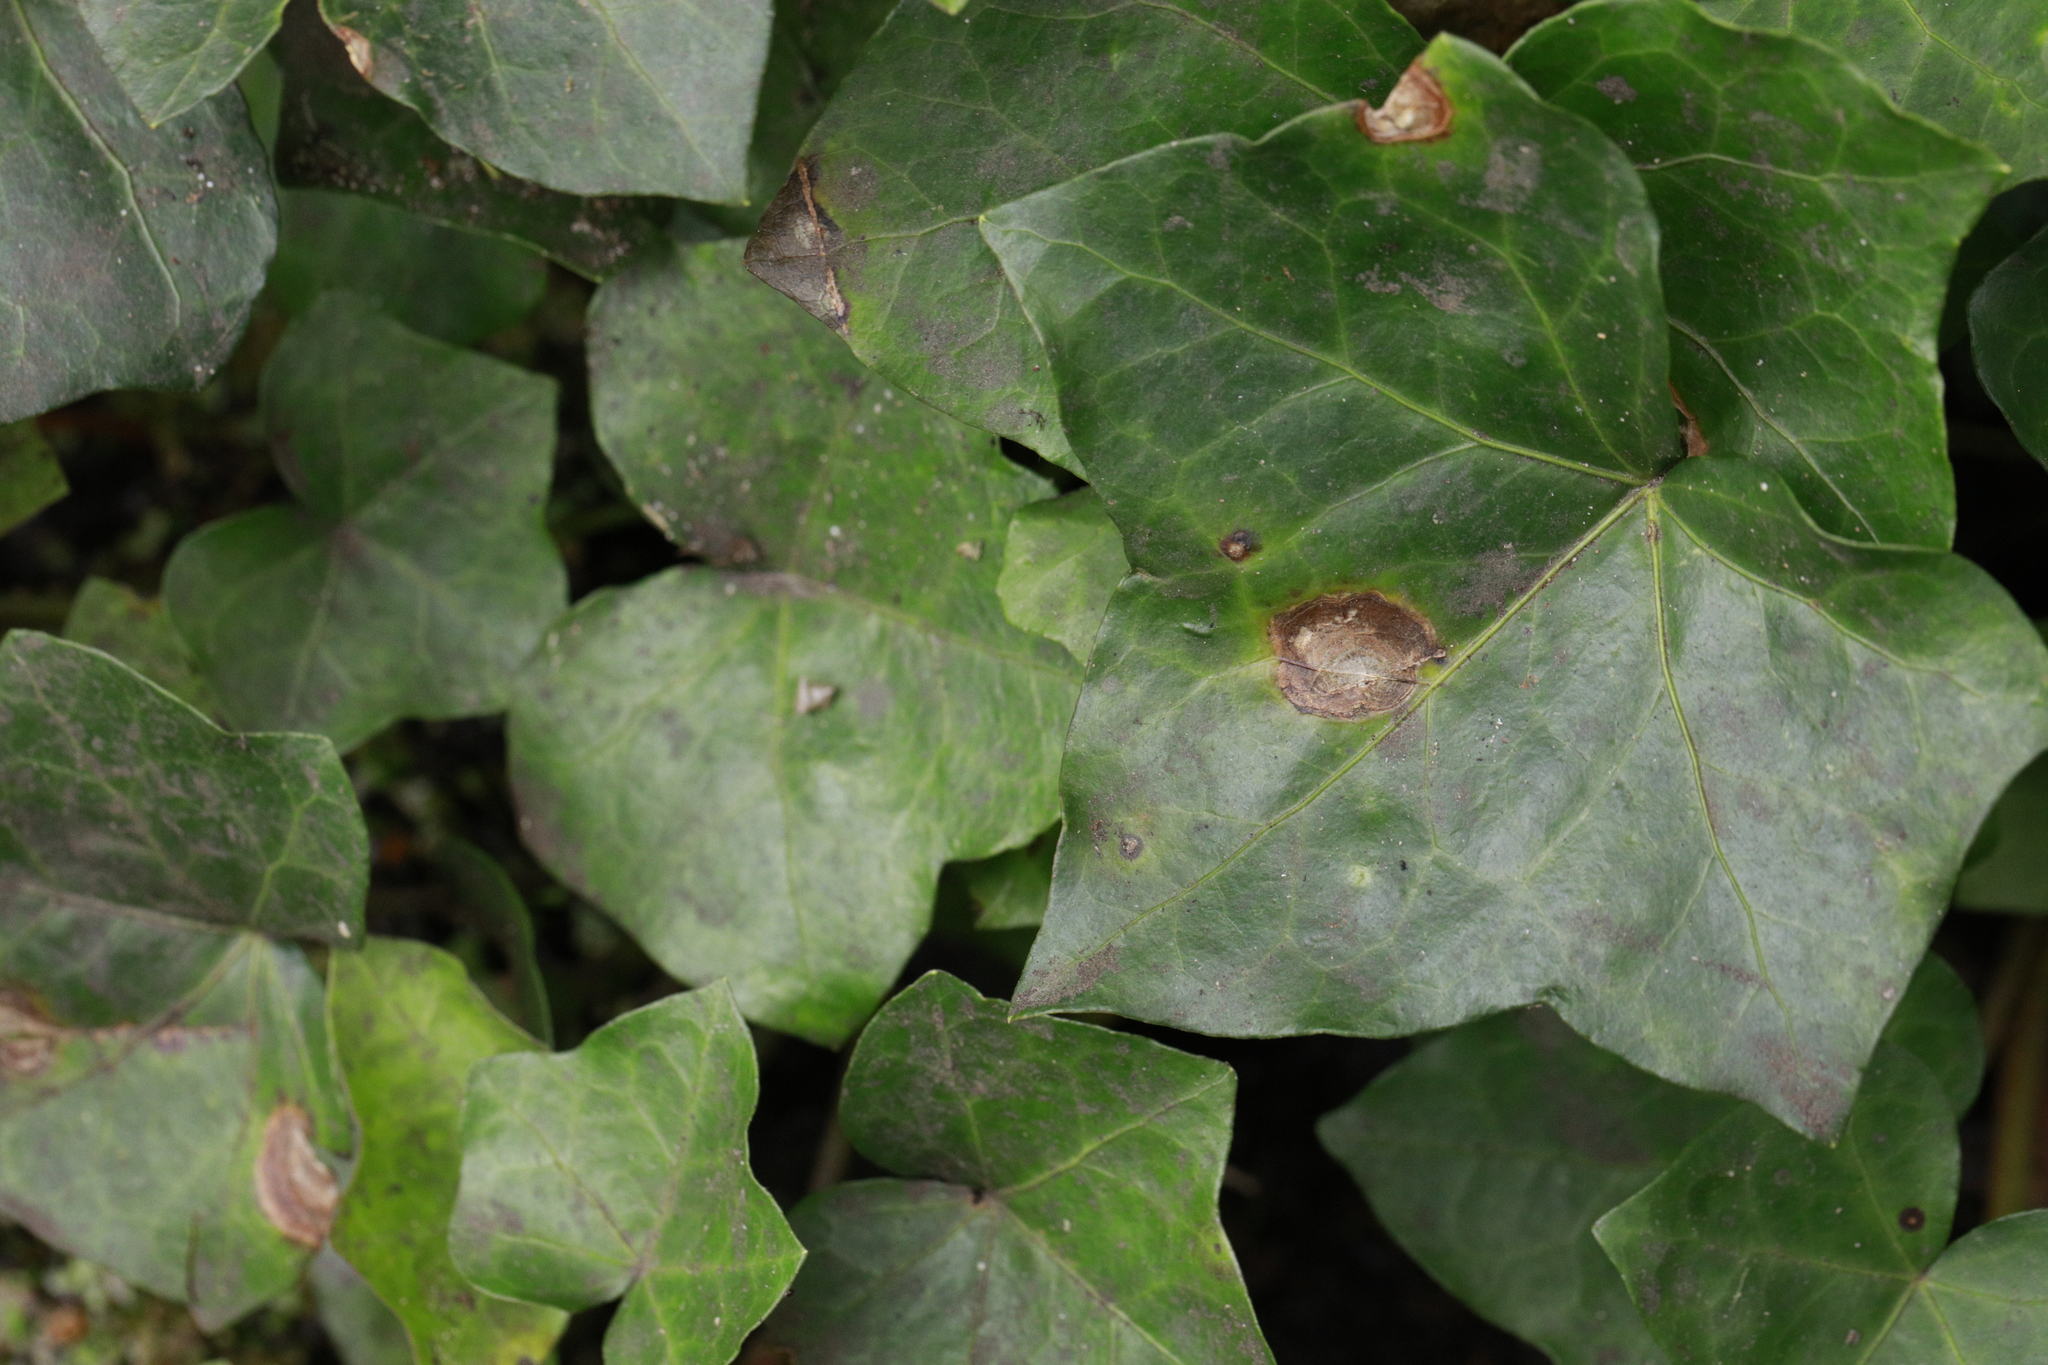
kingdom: Fungi
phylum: Ascomycota
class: Dothideomycetes
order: Pleosporales
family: Didymellaceae
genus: Boeremia
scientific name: Boeremia hedericola
